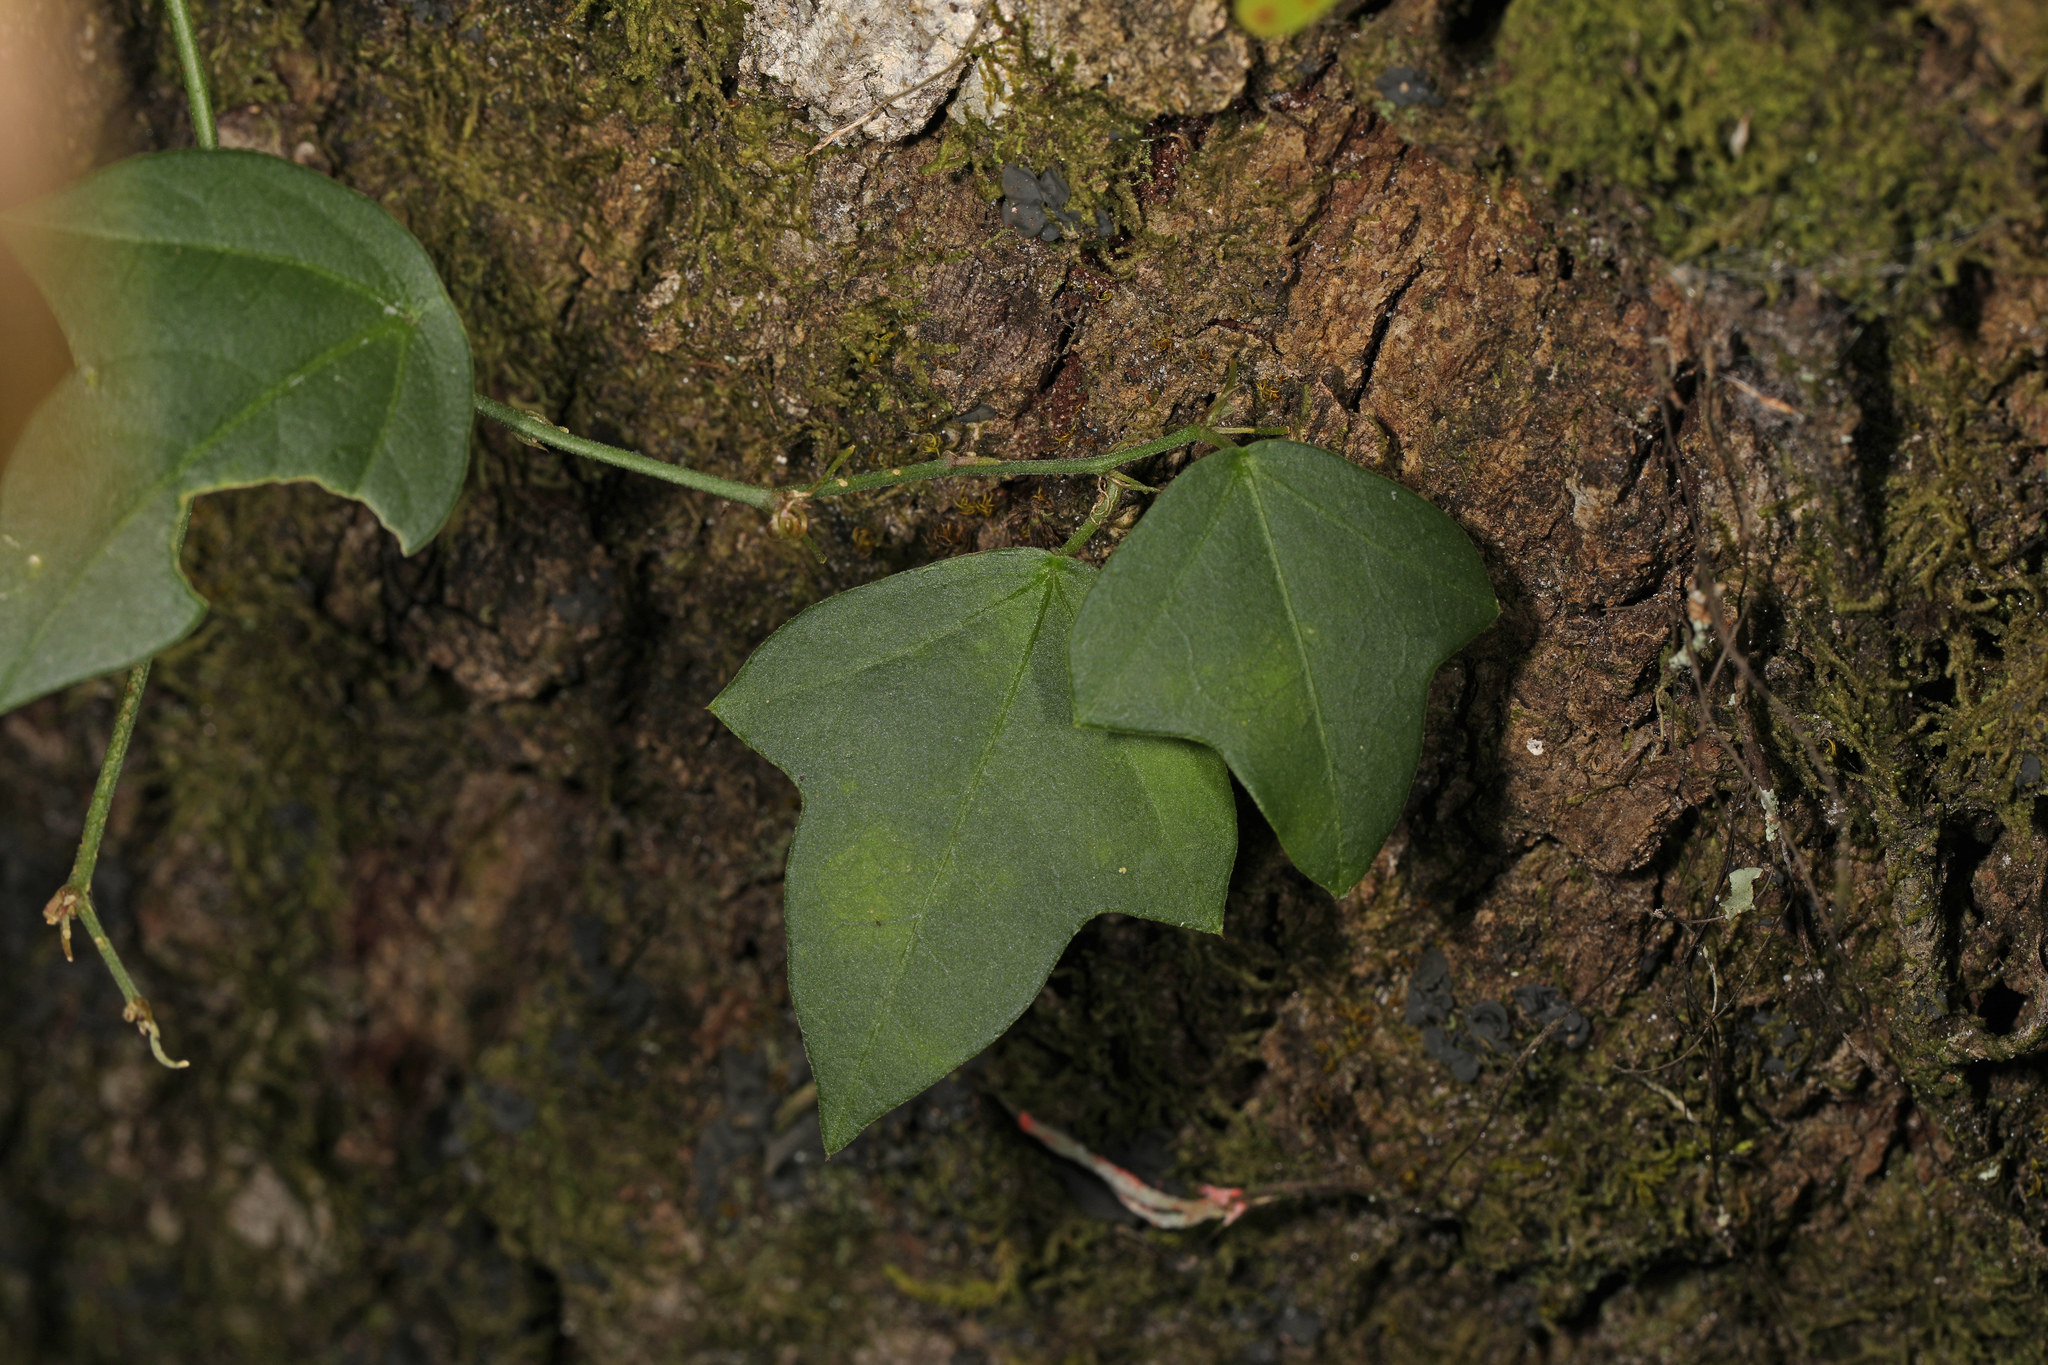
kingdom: Plantae
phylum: Tracheophyta
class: Magnoliopsida
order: Malpighiales
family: Passifloraceae
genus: Passiflora
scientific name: Passiflora pallida
